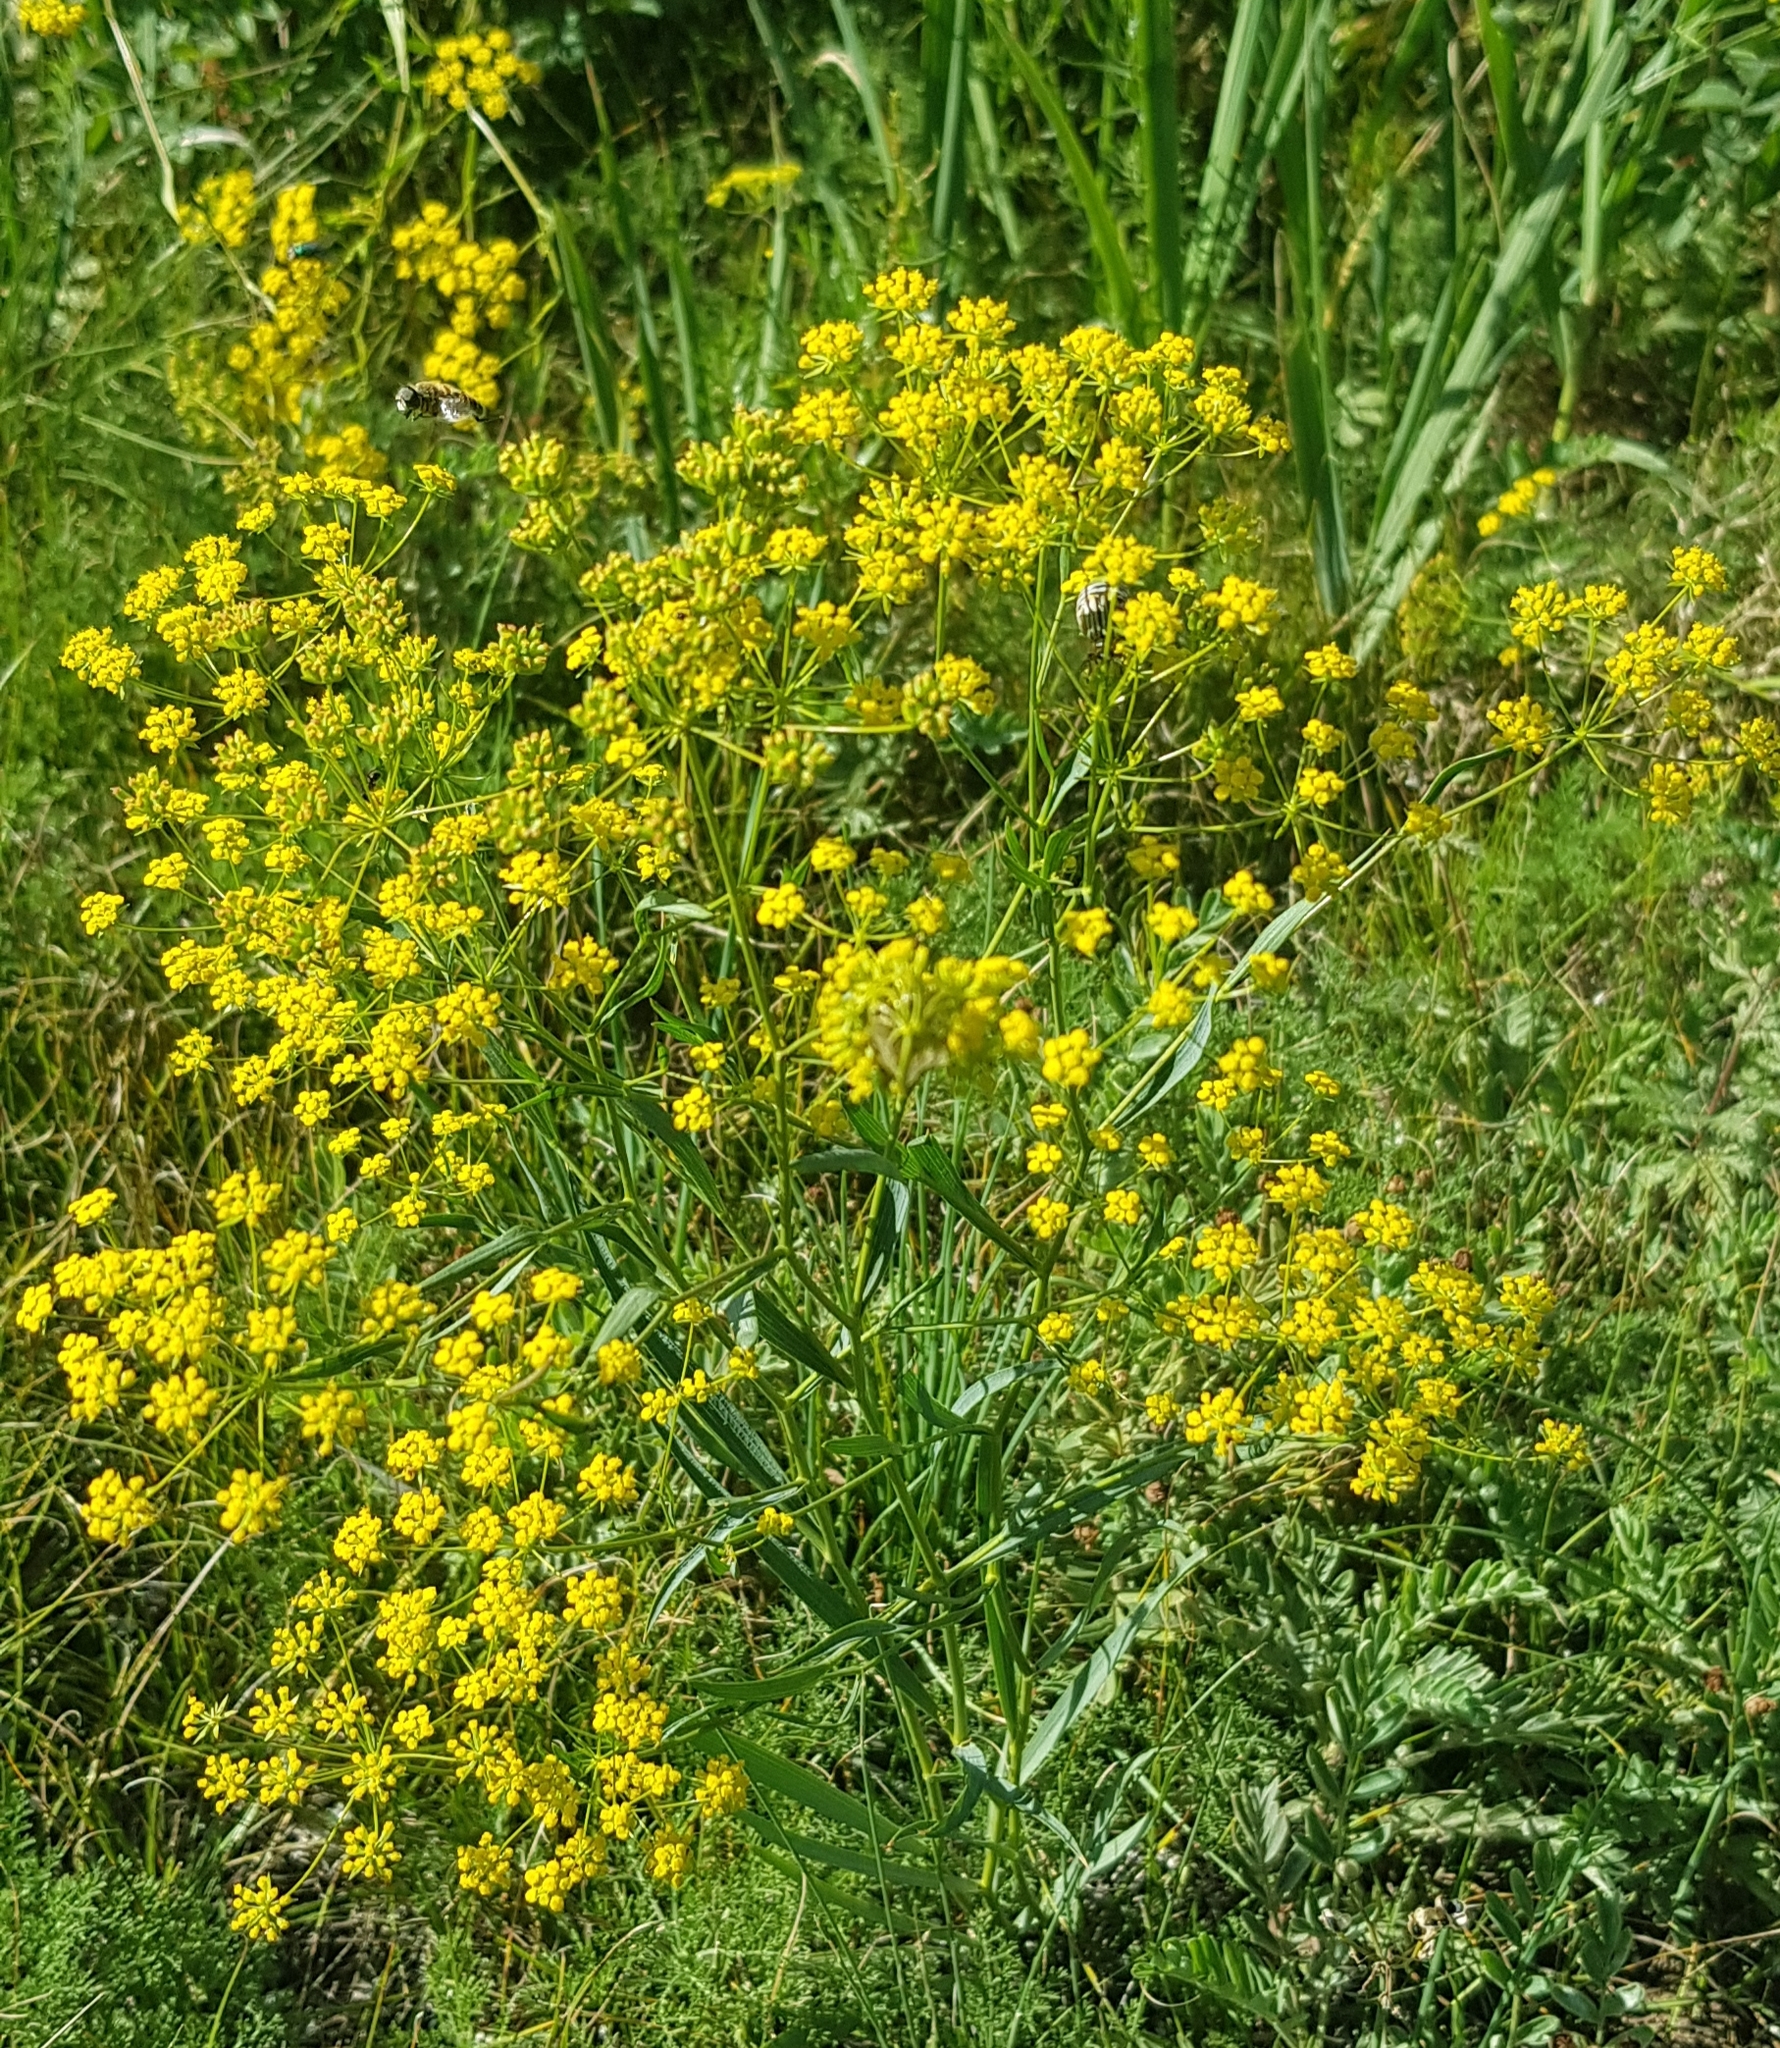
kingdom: Plantae
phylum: Tracheophyta
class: Magnoliopsida
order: Apiales
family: Apiaceae
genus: Bupleurum
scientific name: Bupleurum scorzonerifolium
